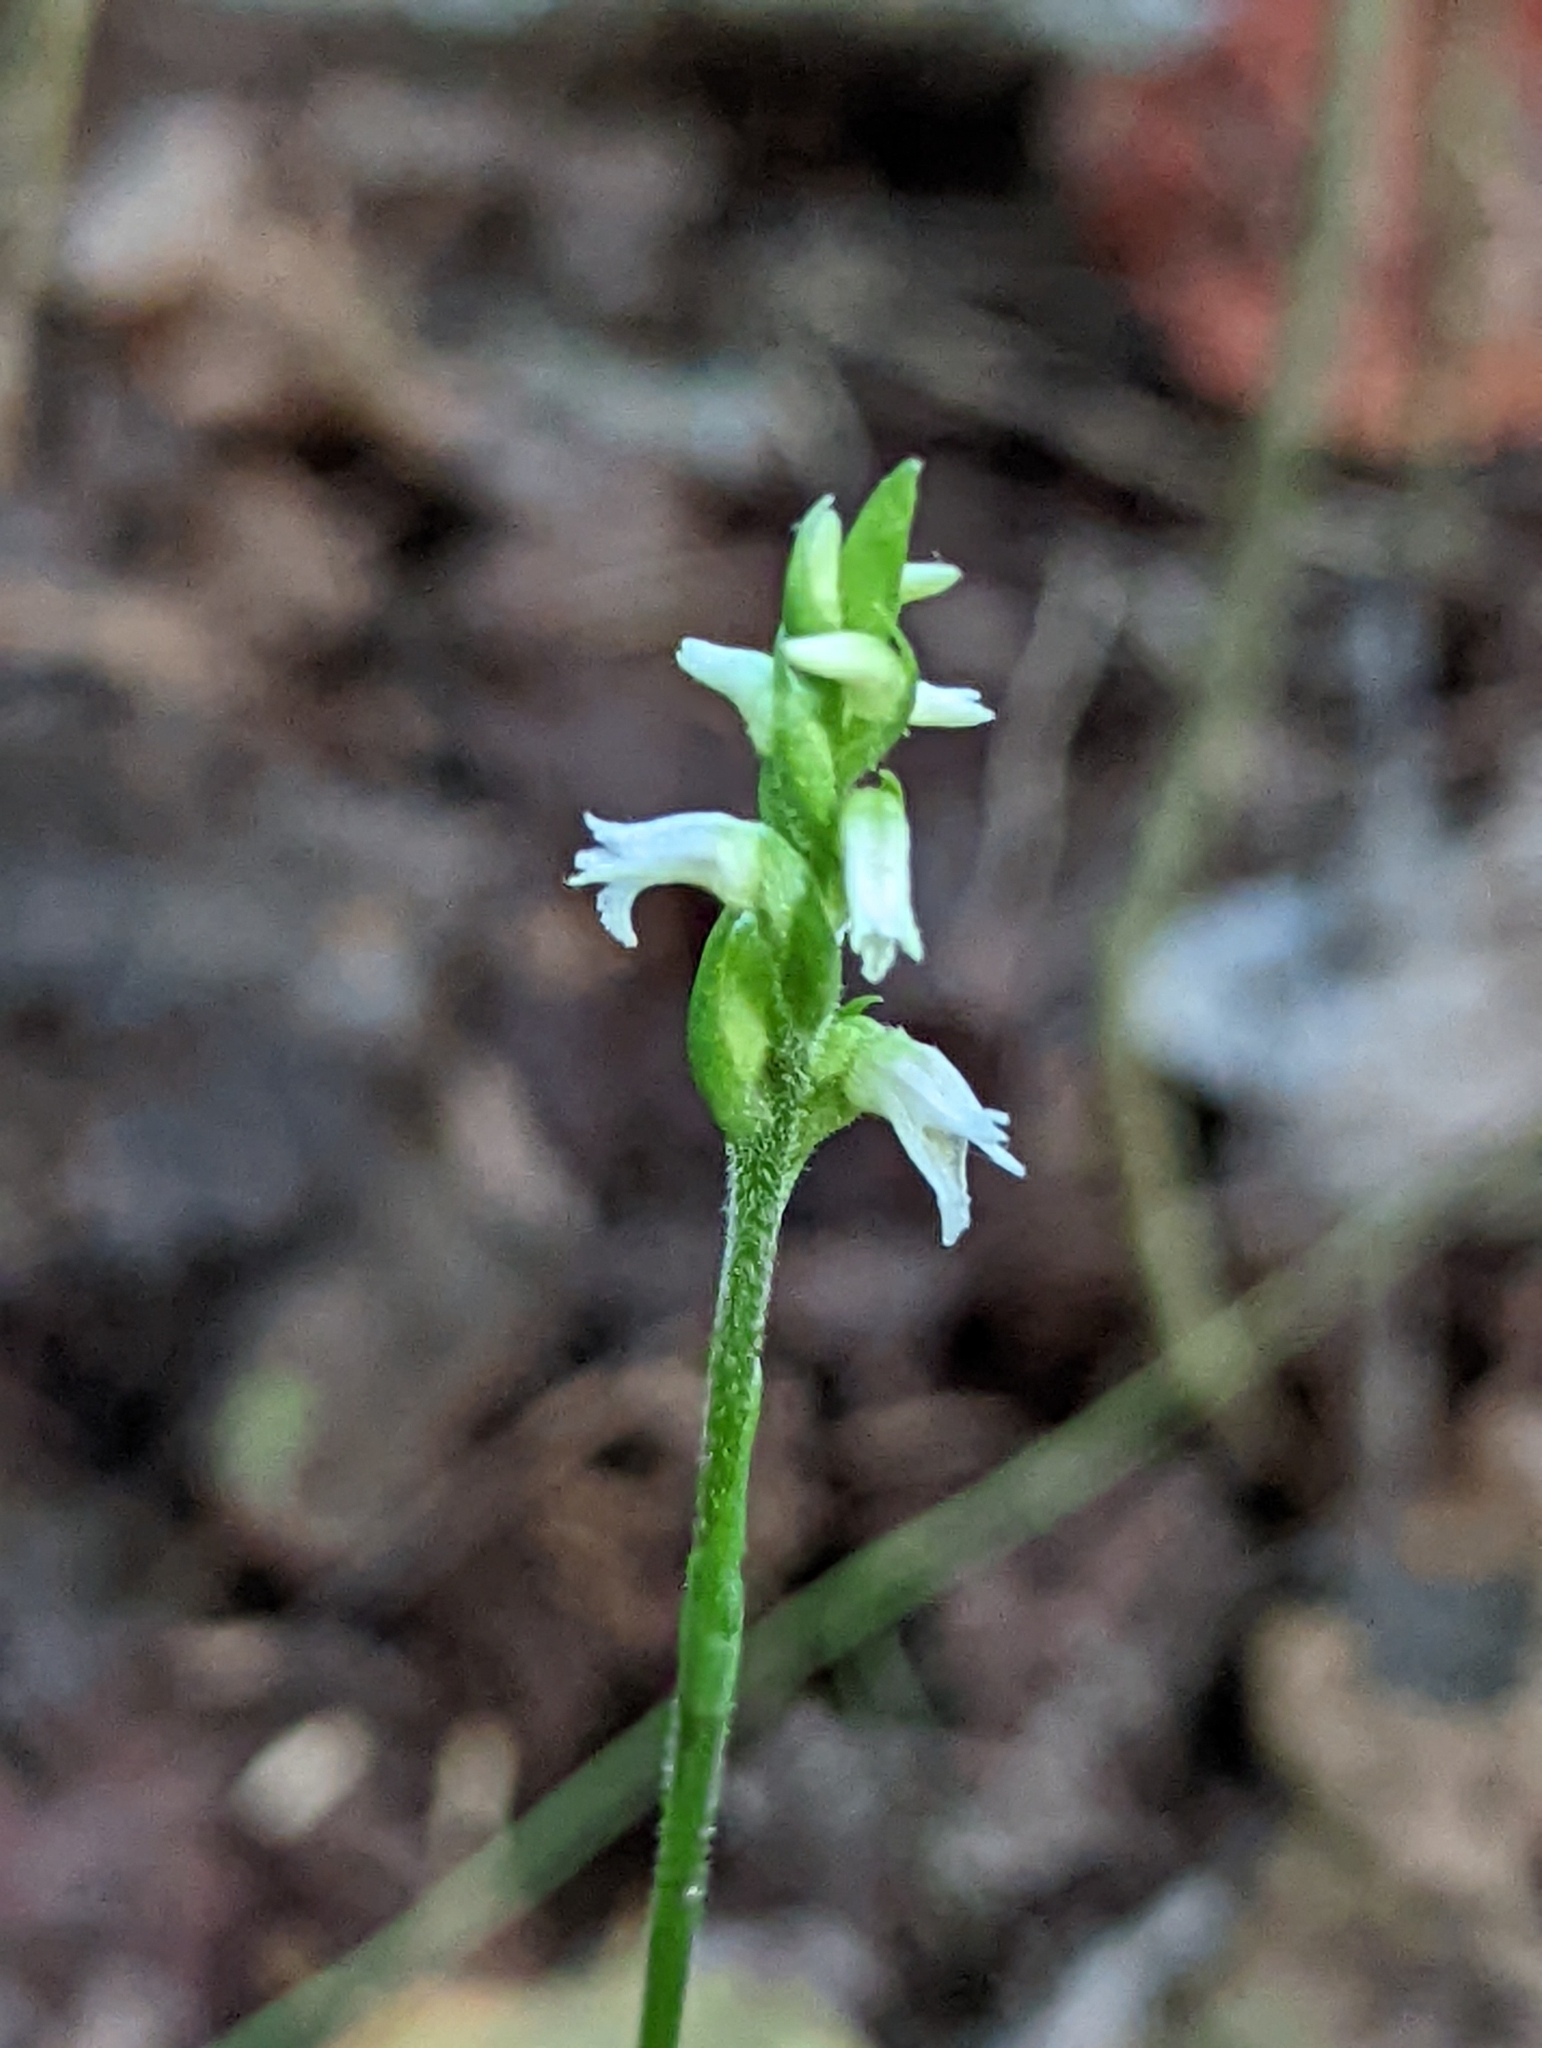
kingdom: Plantae
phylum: Tracheophyta
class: Liliopsida
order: Asparagales
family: Orchidaceae
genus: Spiranthes
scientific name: Spiranthes ovalis
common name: October ladies'-tresses
